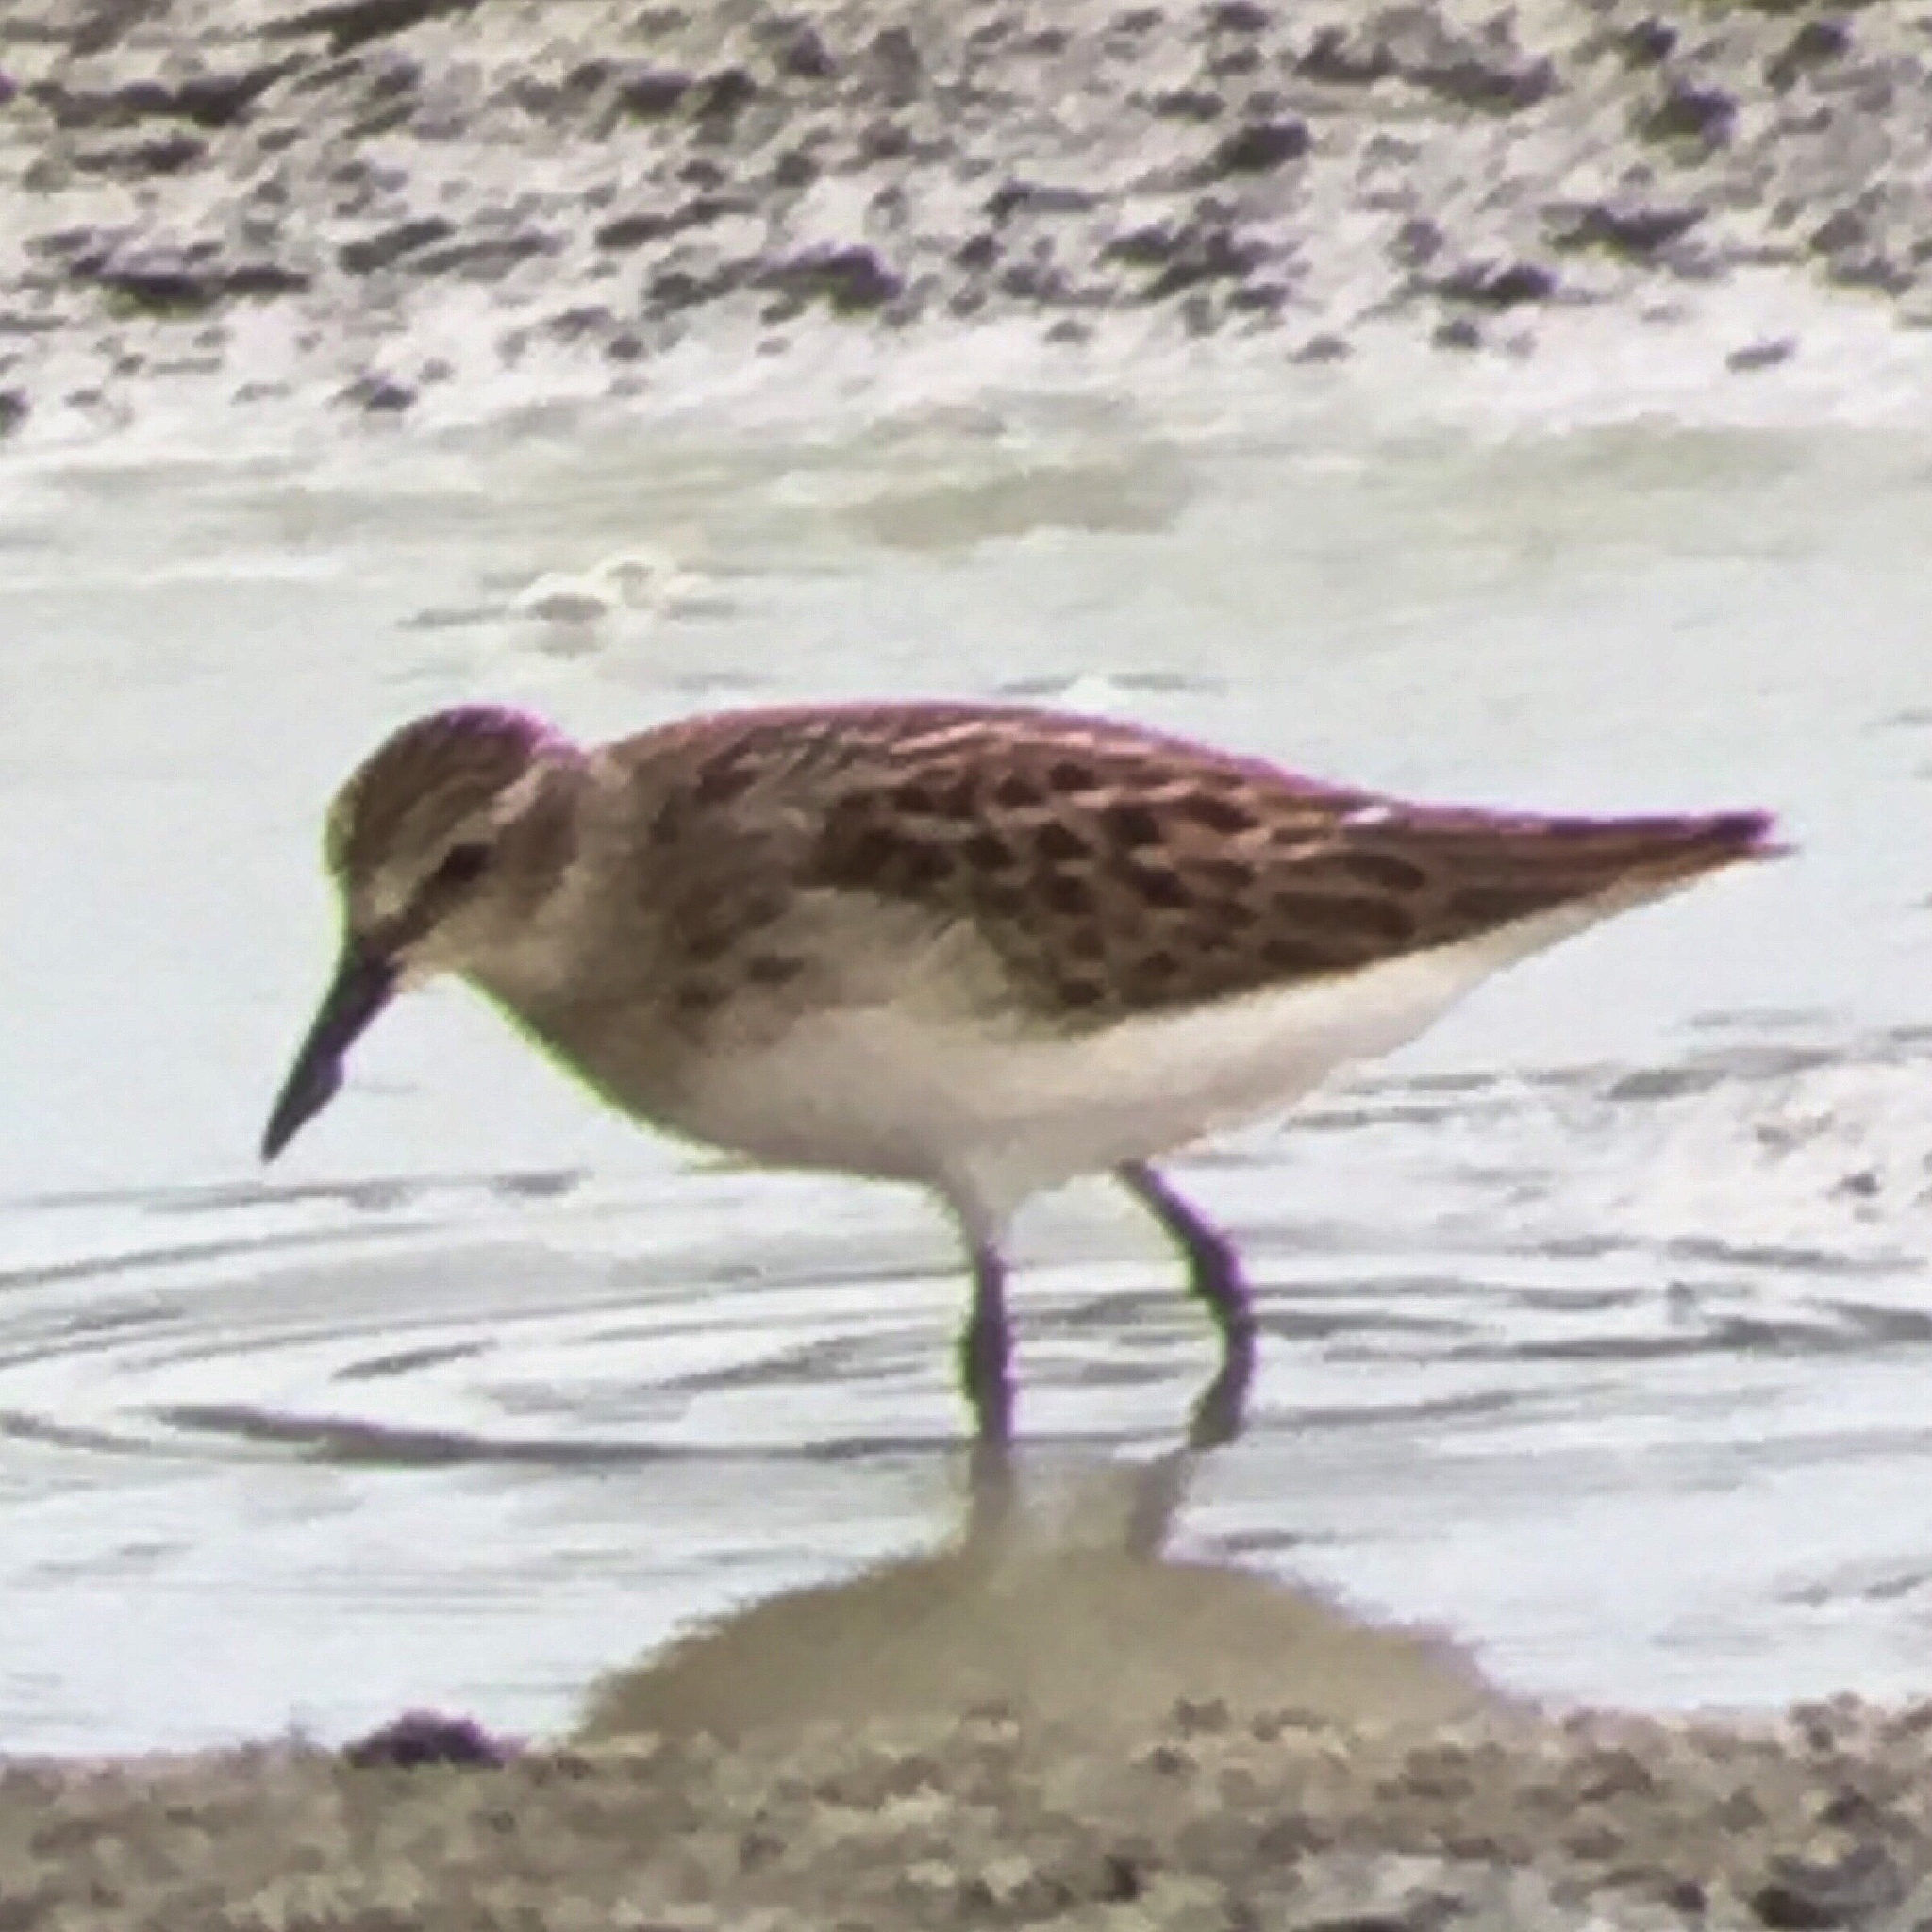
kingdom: Animalia
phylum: Chordata
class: Aves
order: Charadriiformes
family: Scolopacidae
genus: Calidris
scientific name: Calidris minutilla
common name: Least sandpiper
